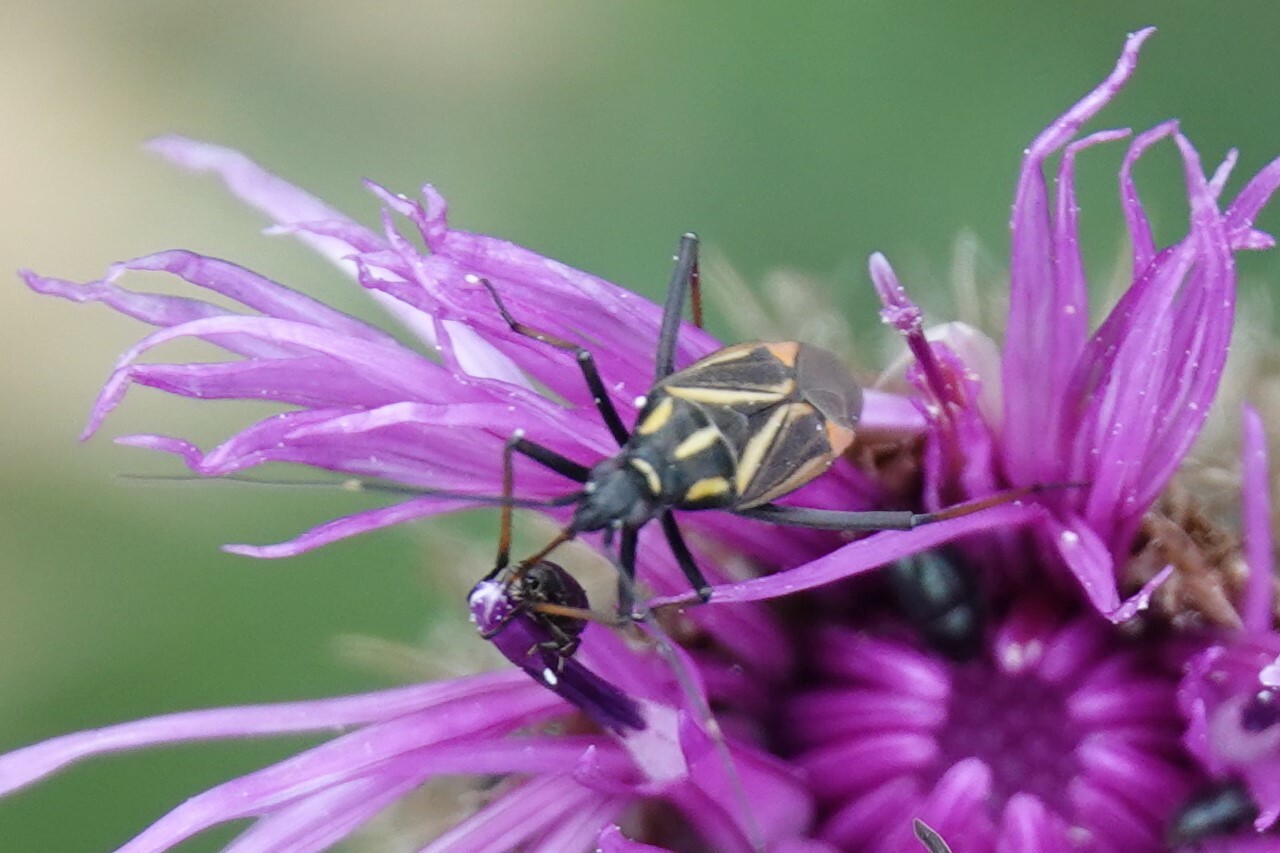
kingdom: Animalia
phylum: Arthropoda
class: Insecta
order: Hemiptera
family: Miridae
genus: Hadrodemus
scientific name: Hadrodemus m-flavum
